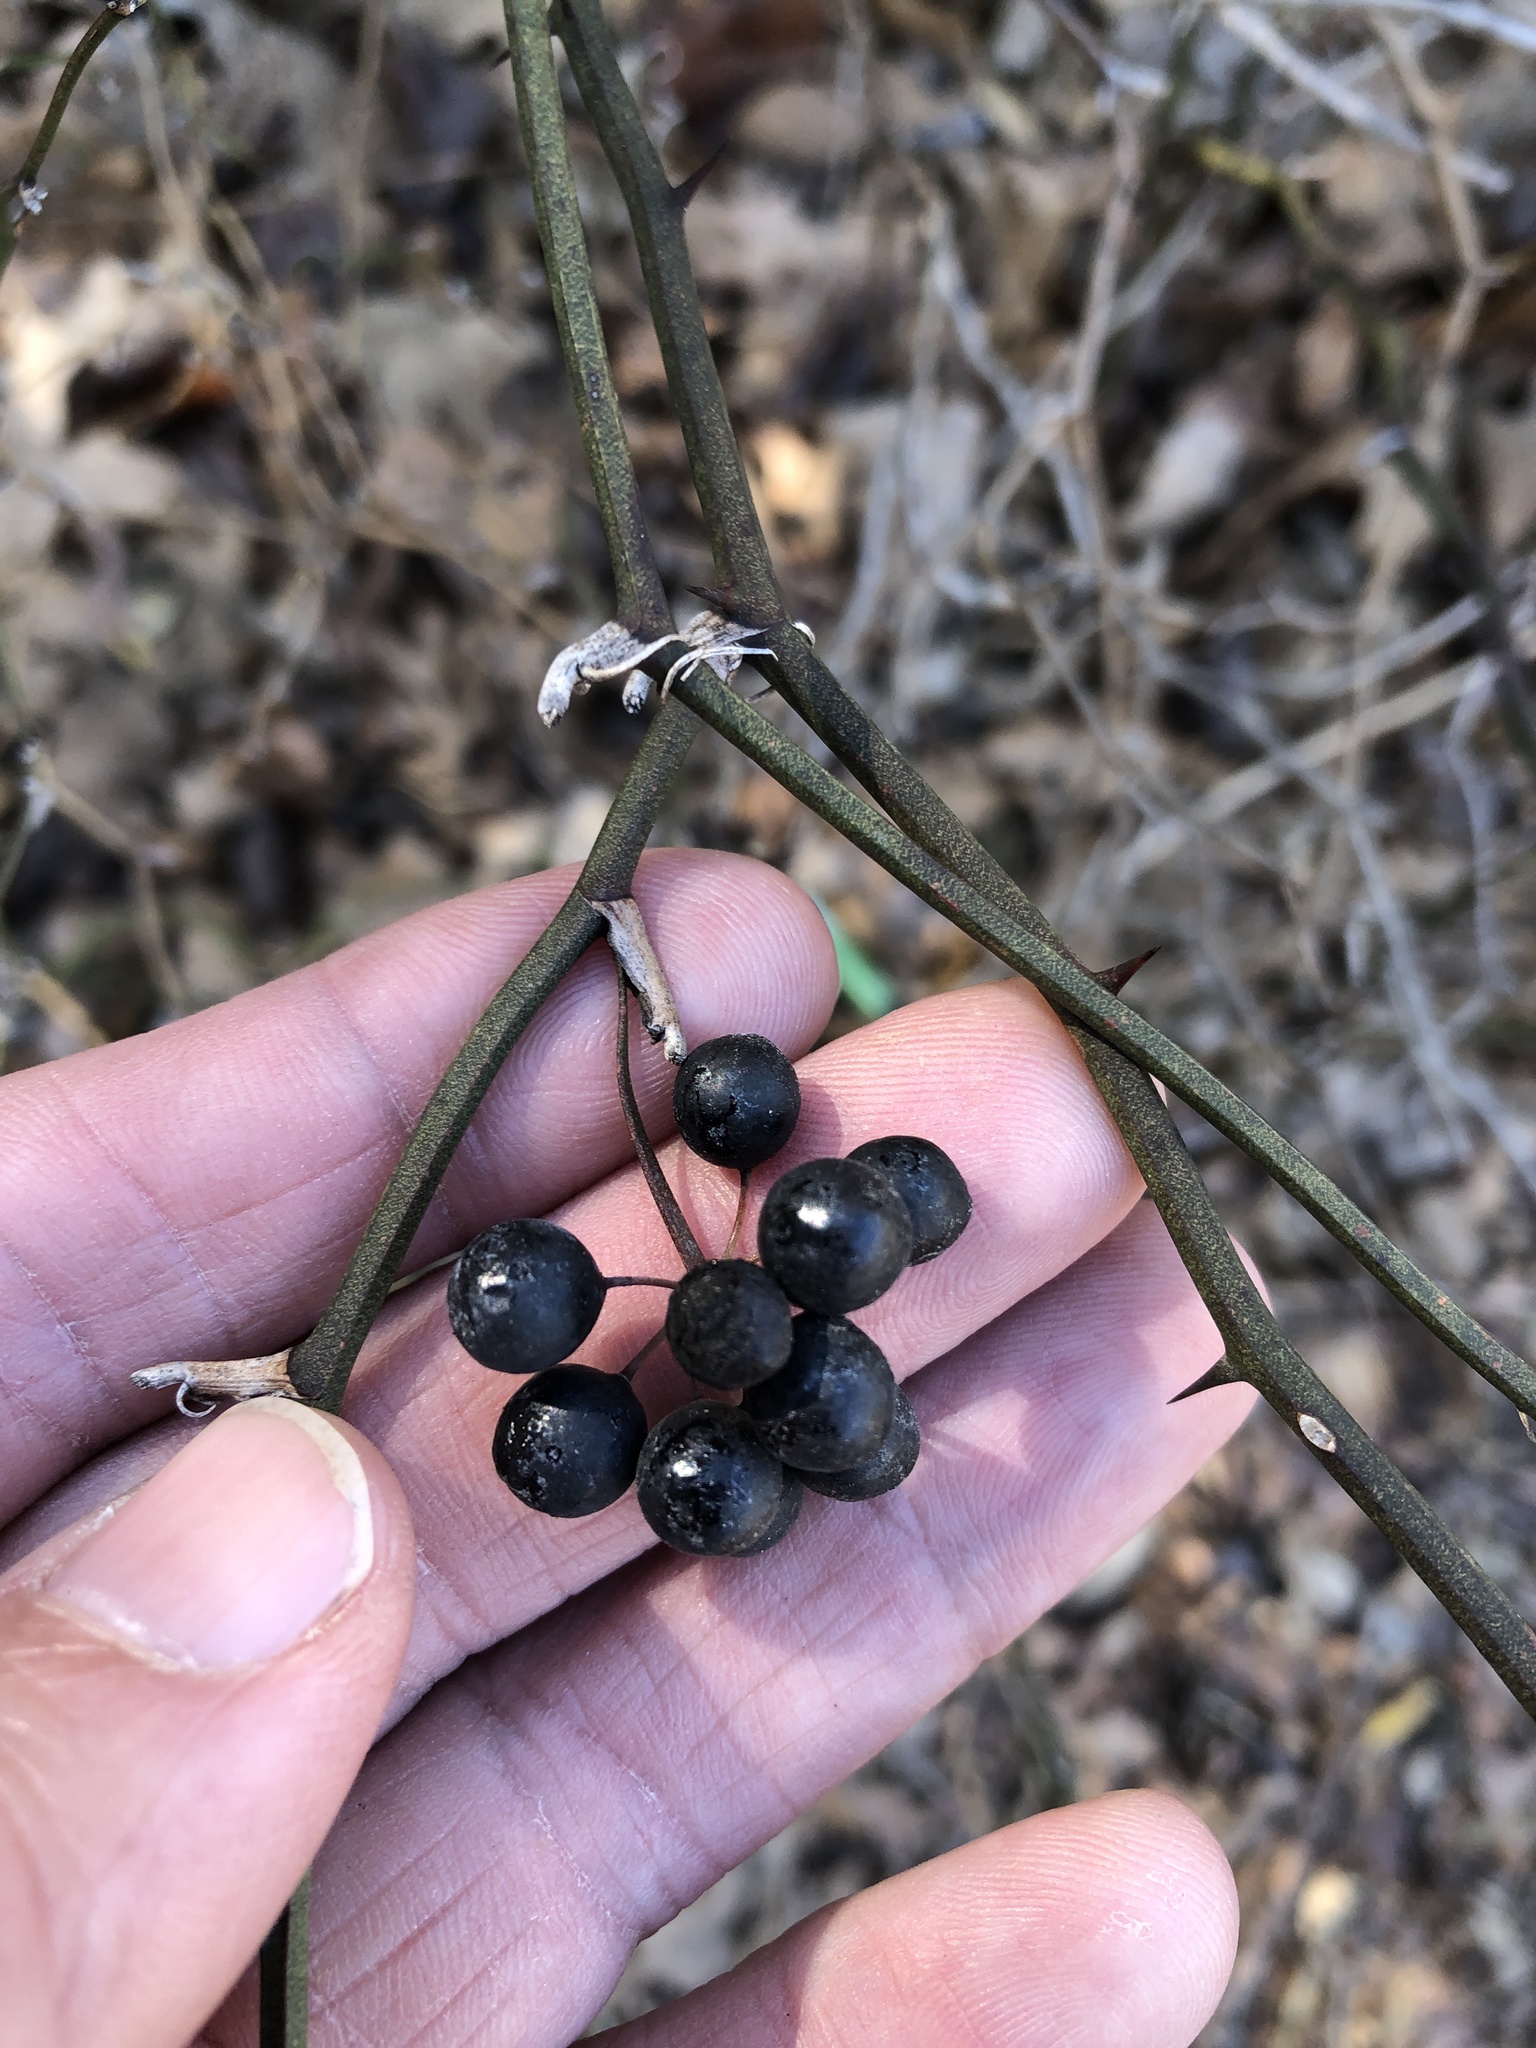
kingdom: Plantae
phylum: Tracheophyta
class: Liliopsida
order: Liliales
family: Smilacaceae
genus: Smilax
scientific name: Smilax bona-nox
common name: Catbrier
